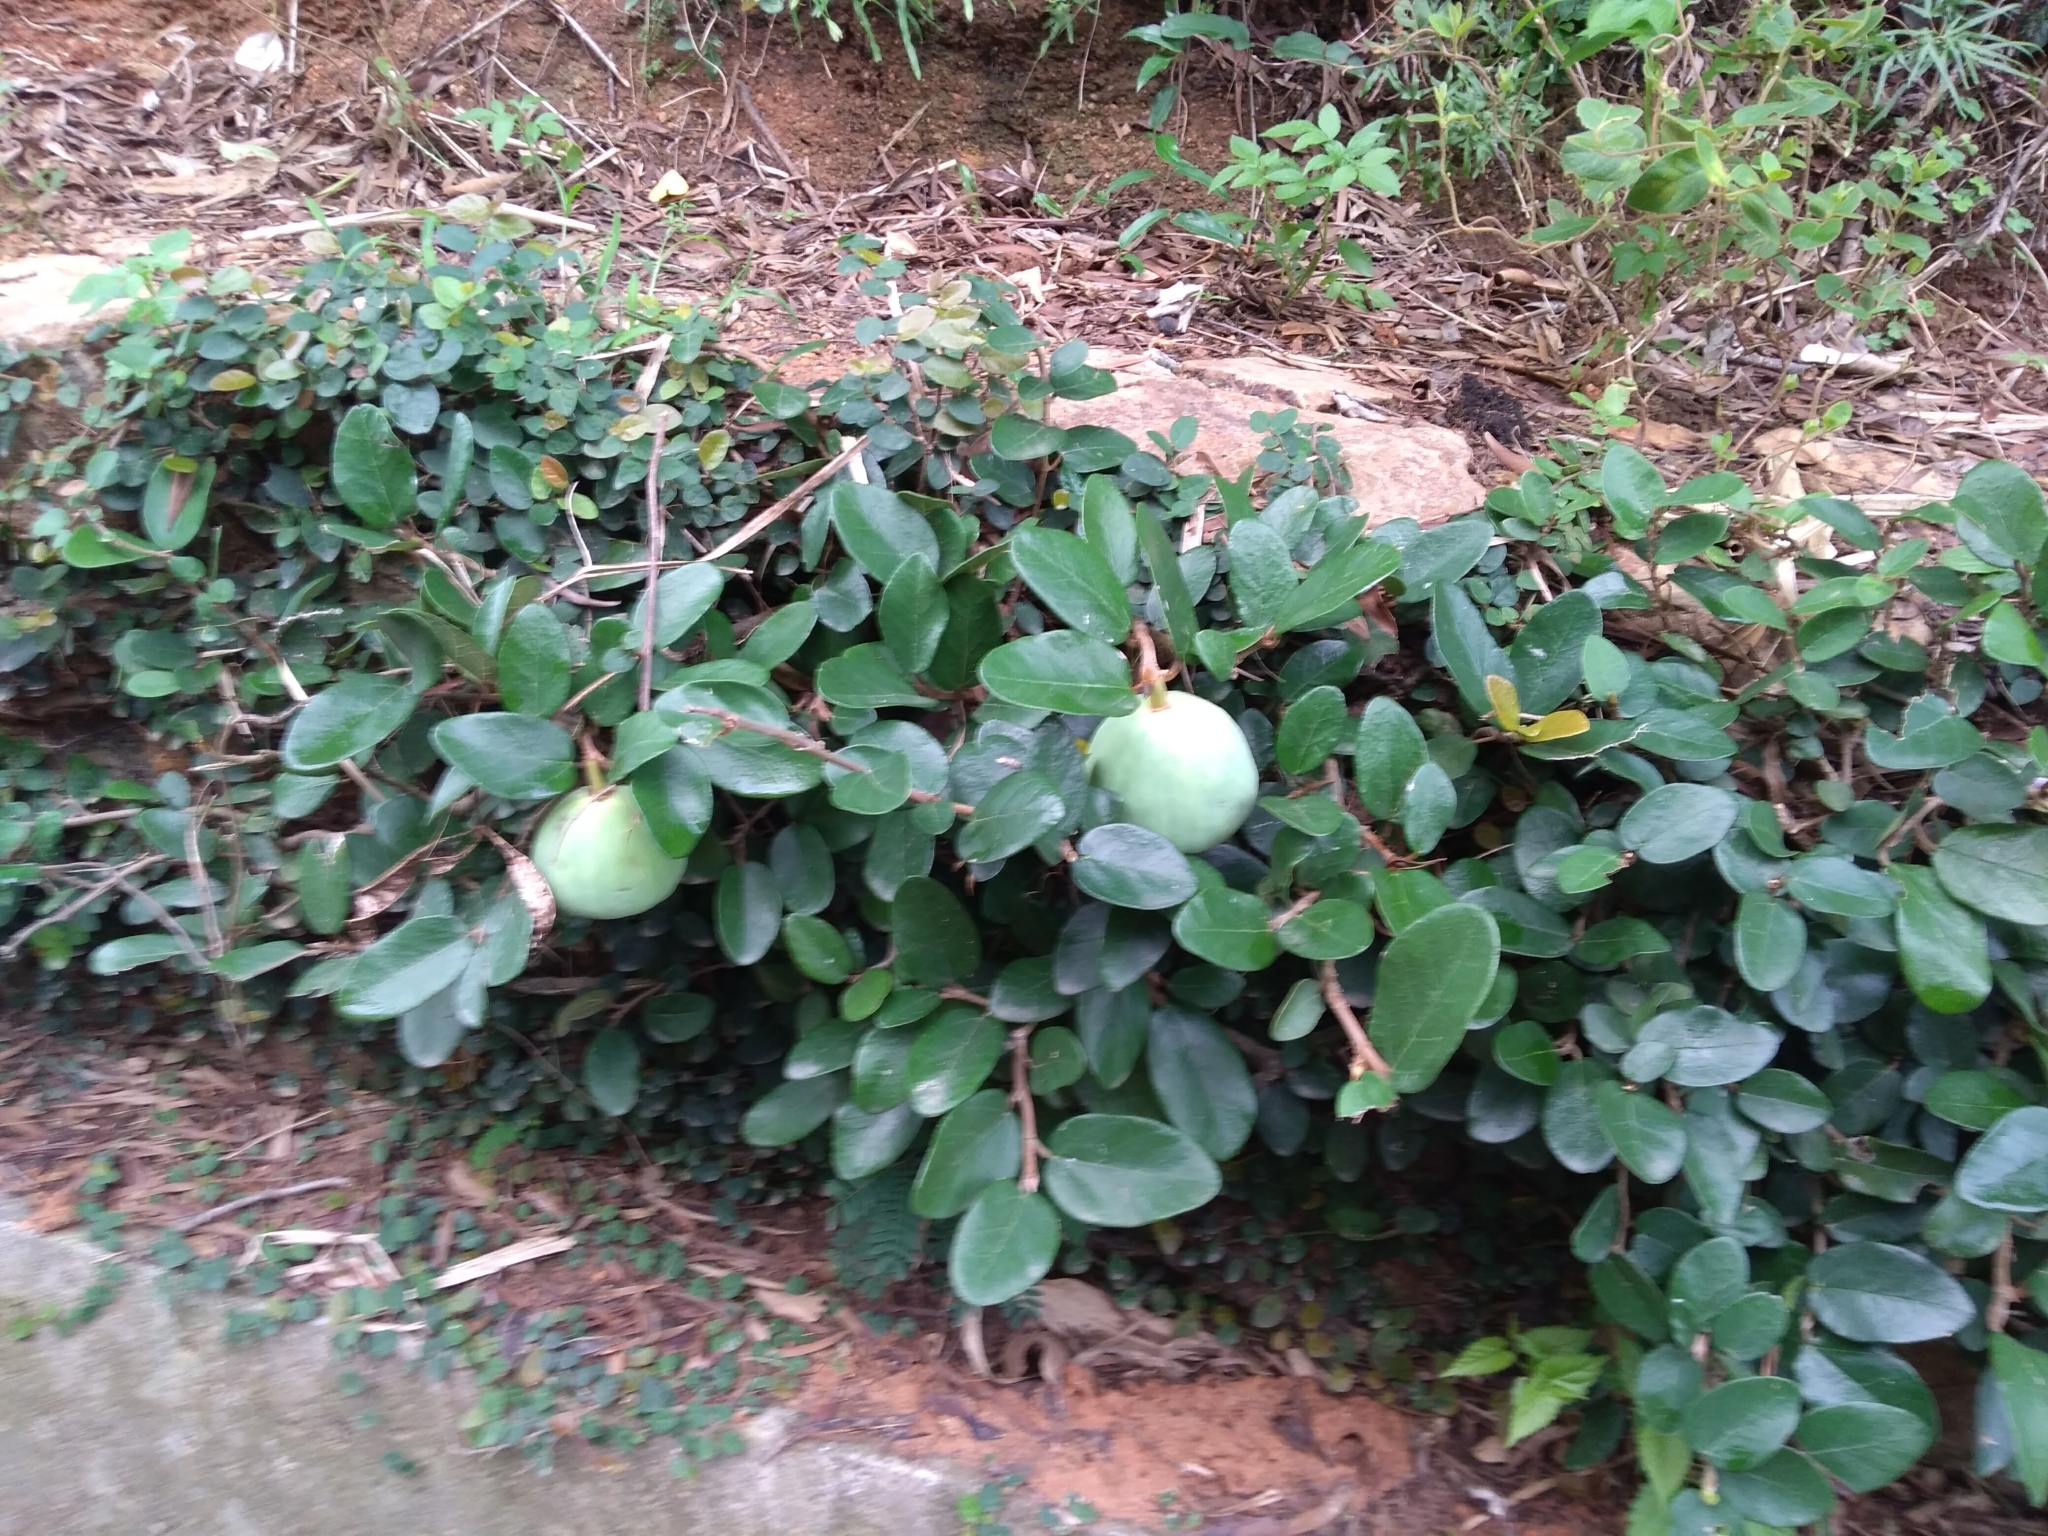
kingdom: Plantae
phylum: Tracheophyta
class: Magnoliopsida
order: Rosales
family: Moraceae
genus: Ficus
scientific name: Ficus pumila
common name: Climbingfig
